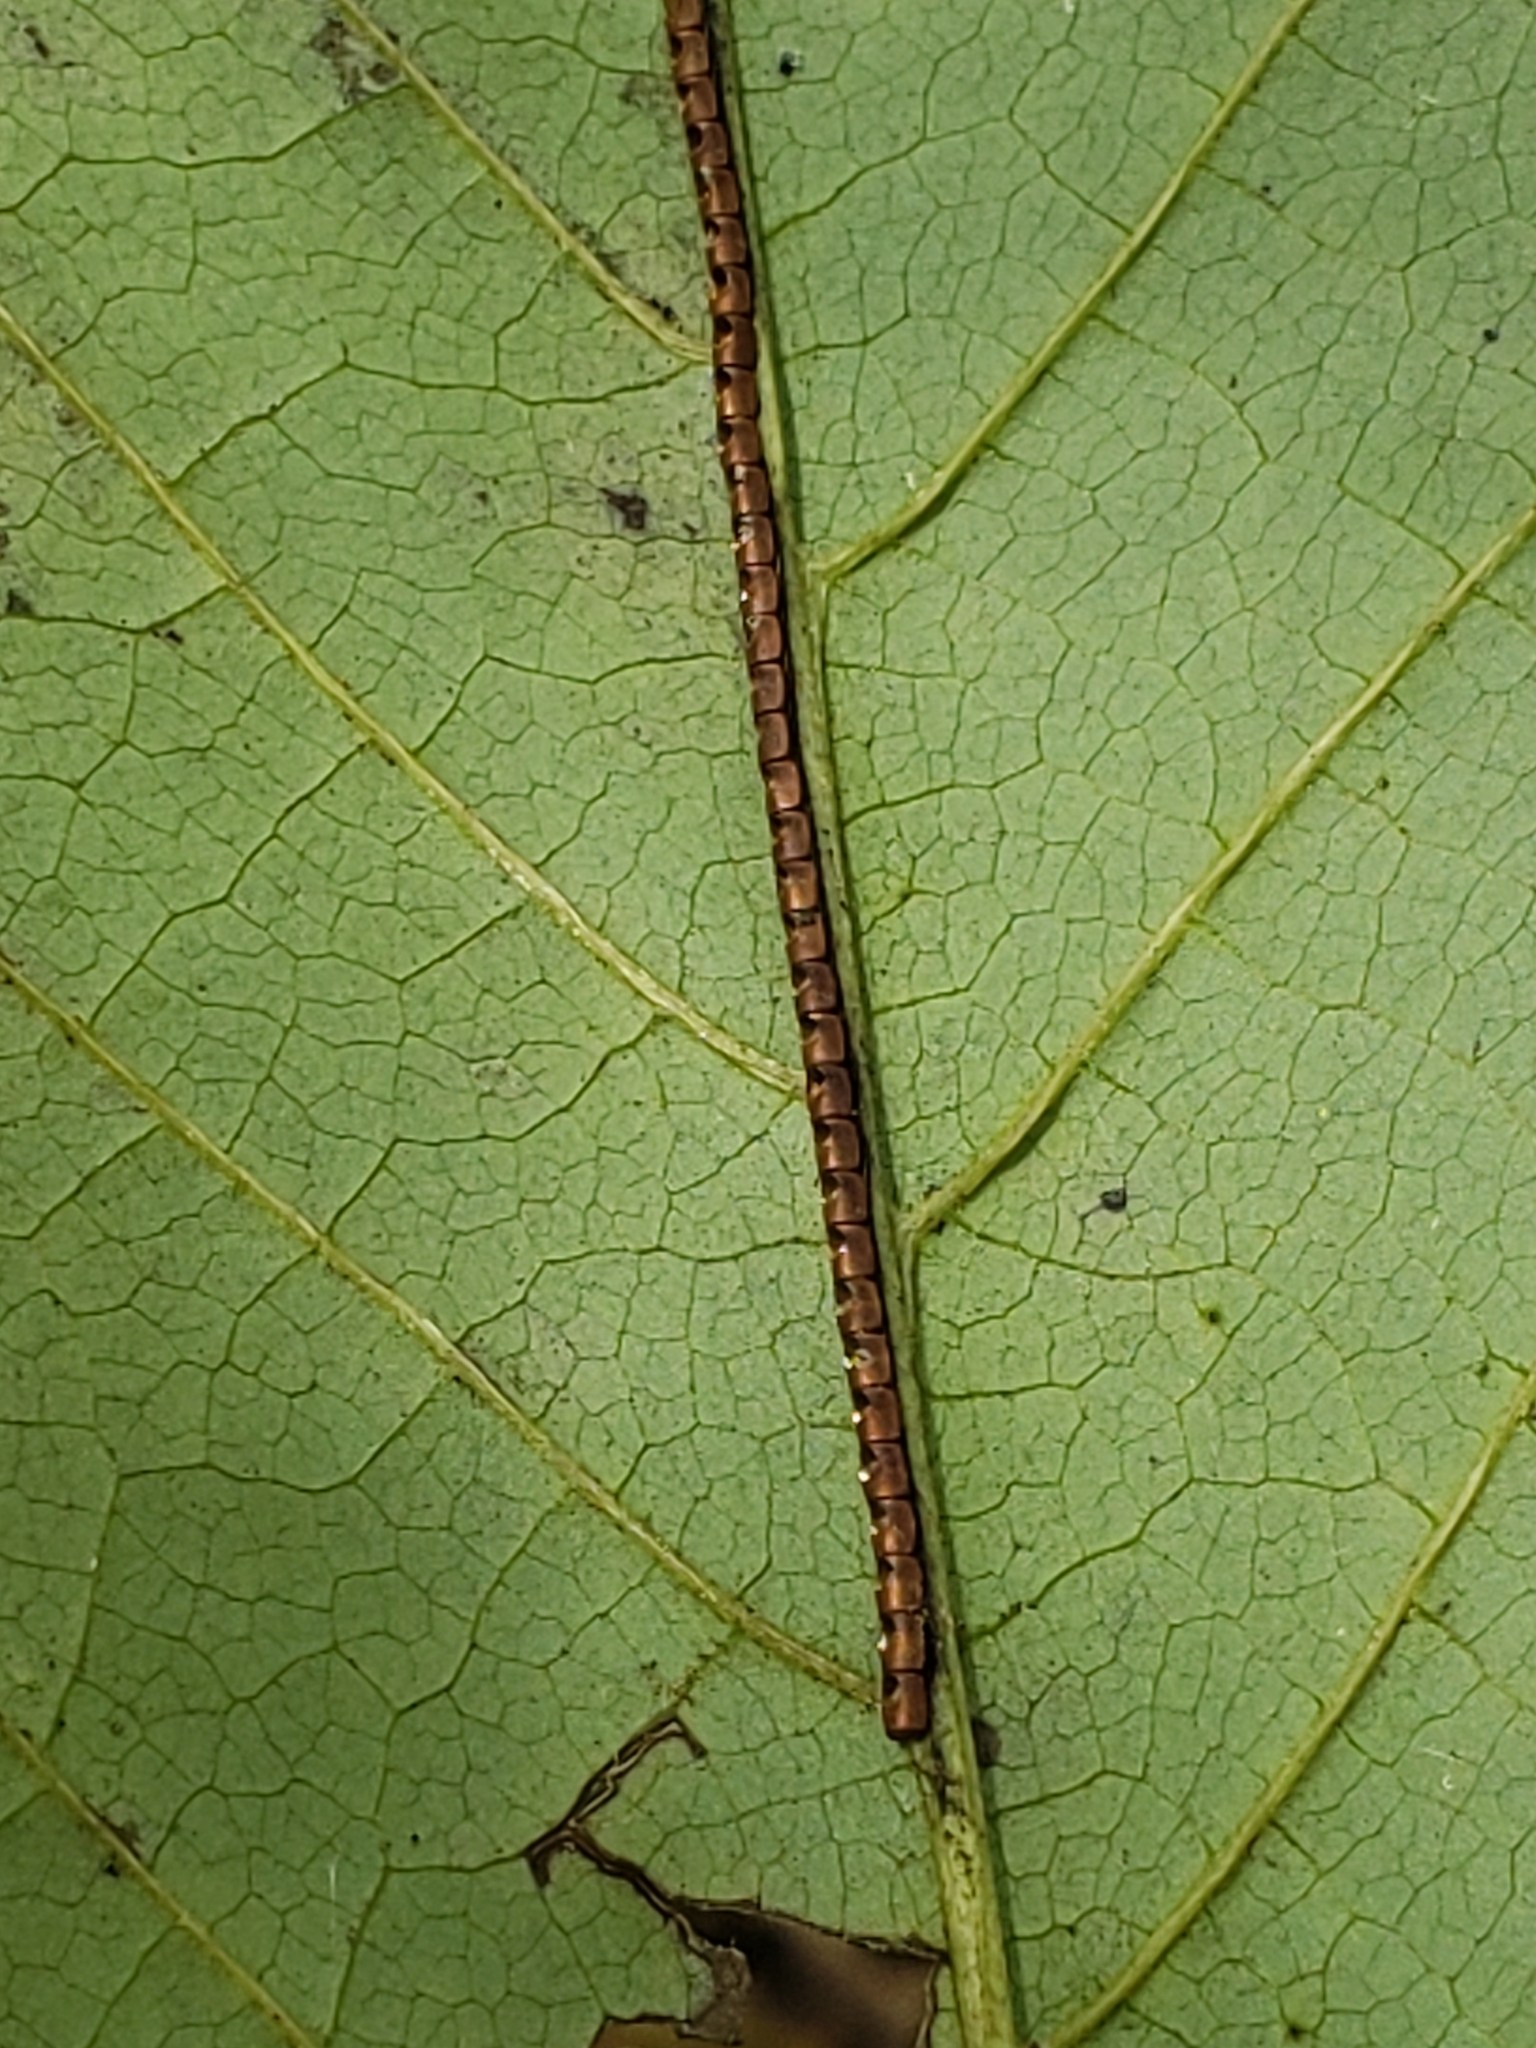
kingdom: Animalia
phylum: Arthropoda
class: Insecta
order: Hemiptera
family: Coreidae
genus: Leptoglossus
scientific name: Leptoglossus
